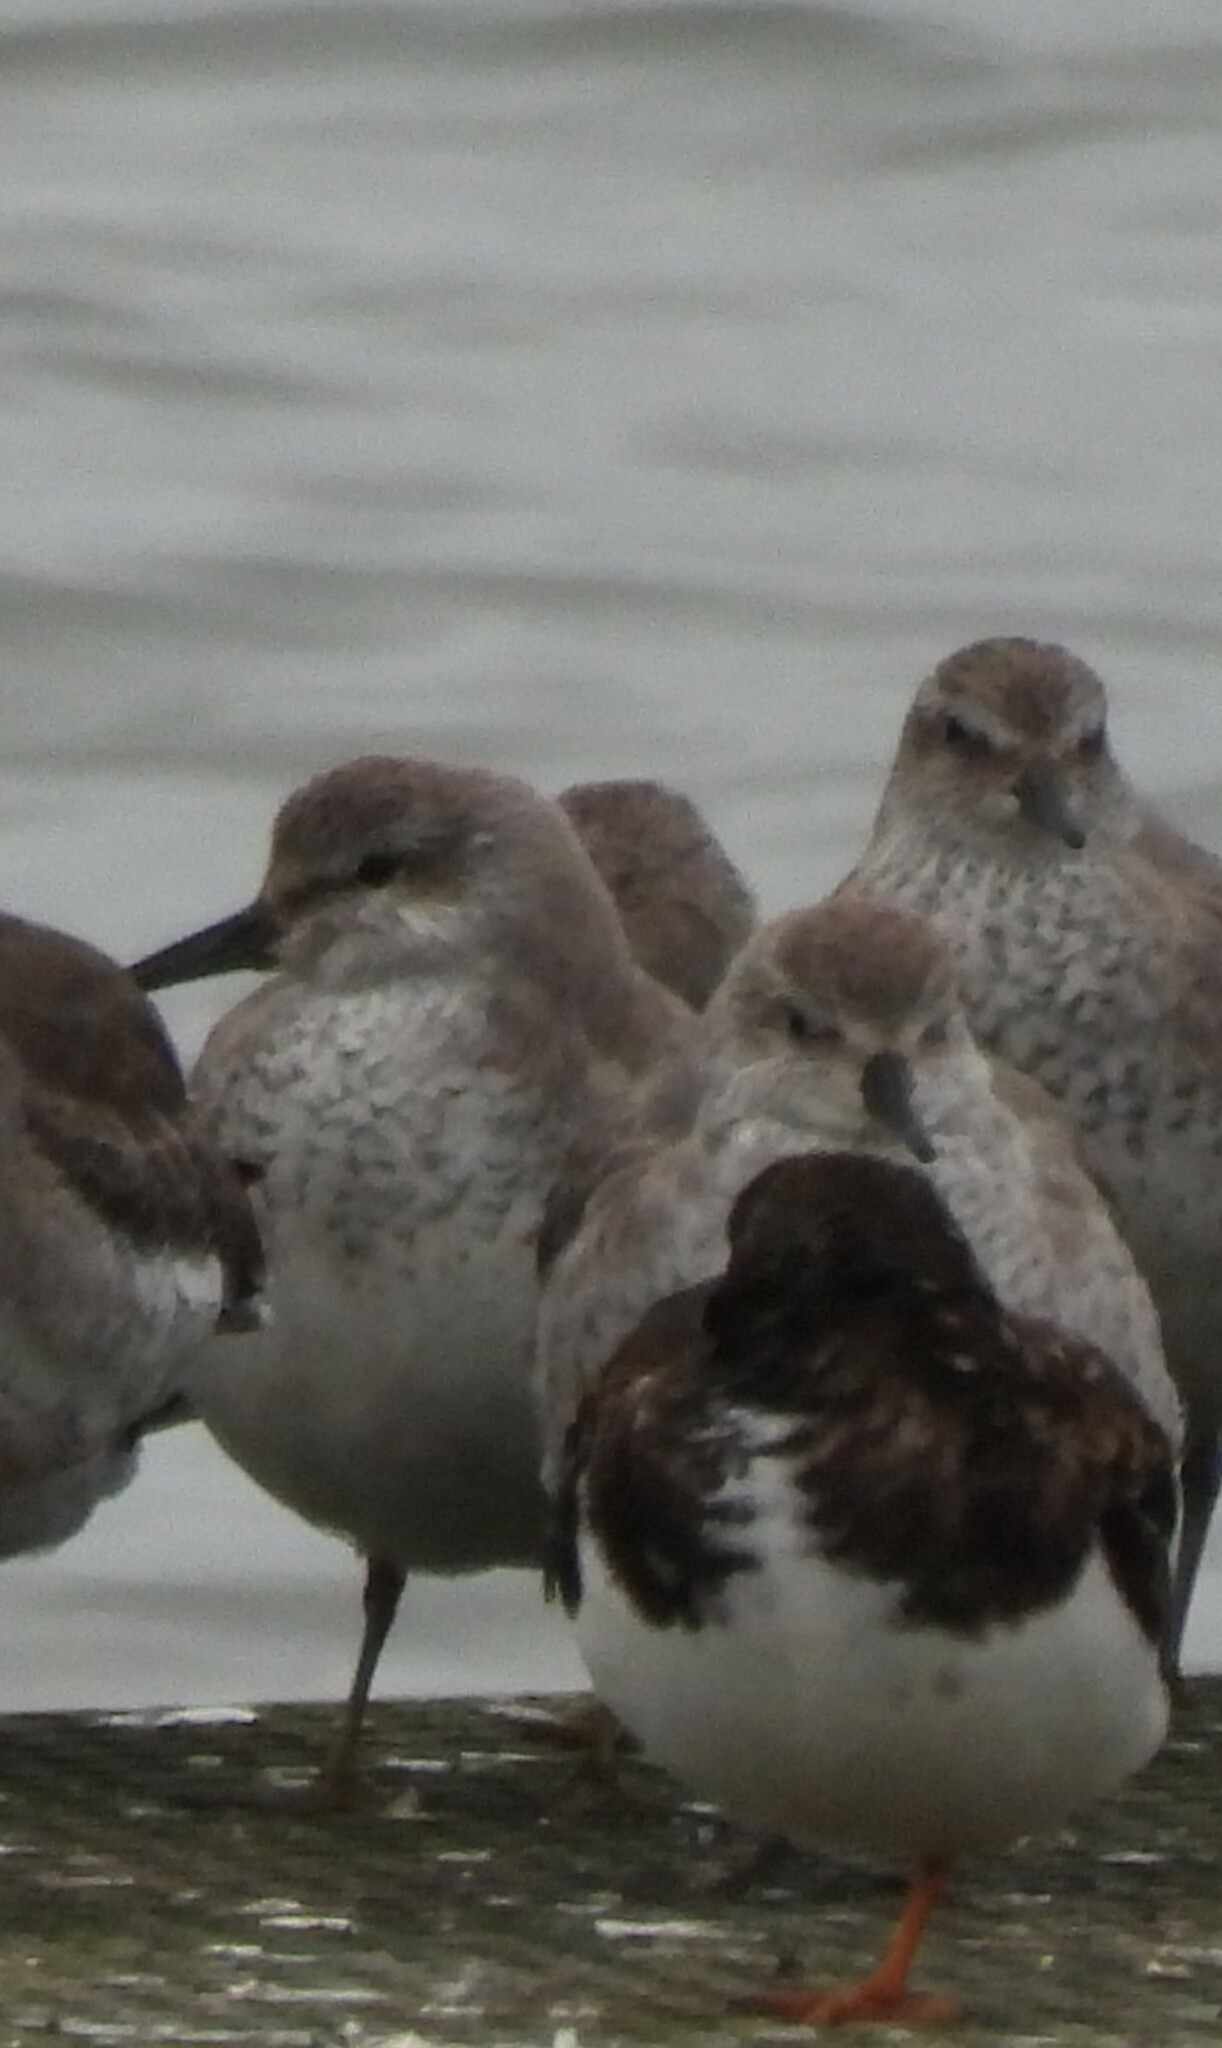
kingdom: Animalia
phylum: Chordata
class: Aves
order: Charadriiformes
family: Scolopacidae
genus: Calidris
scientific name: Calidris canutus
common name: Red knot
